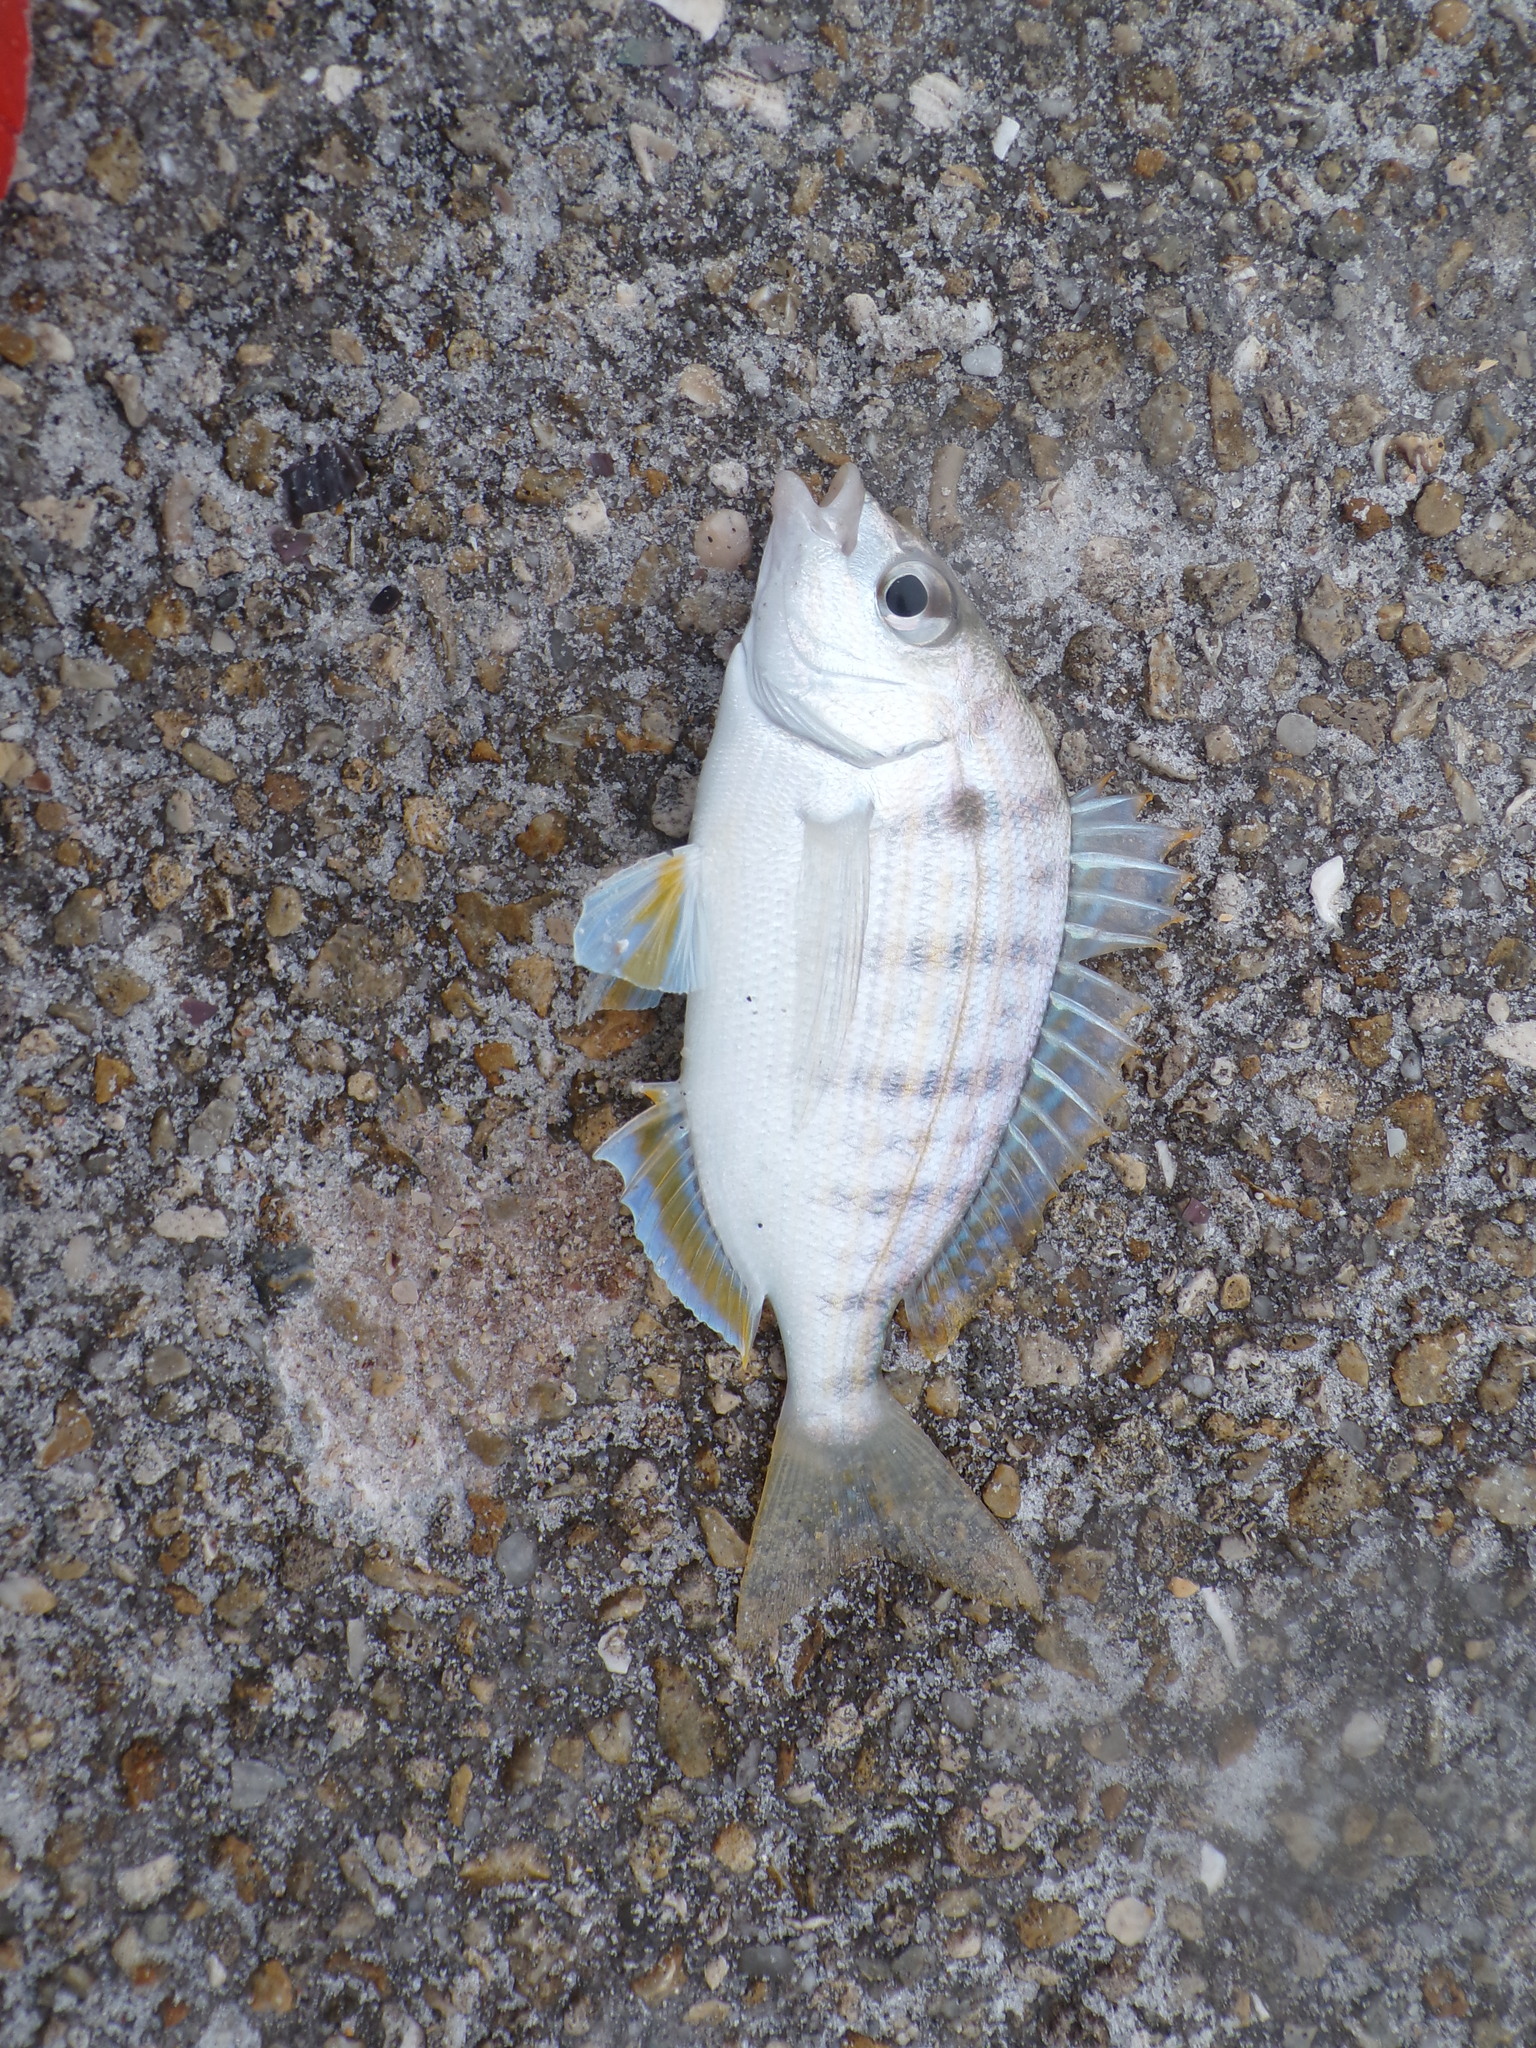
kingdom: Animalia
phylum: Chordata
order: Perciformes
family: Sparidae
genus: Lagodon
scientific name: Lagodon rhomboides
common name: Pinfish
